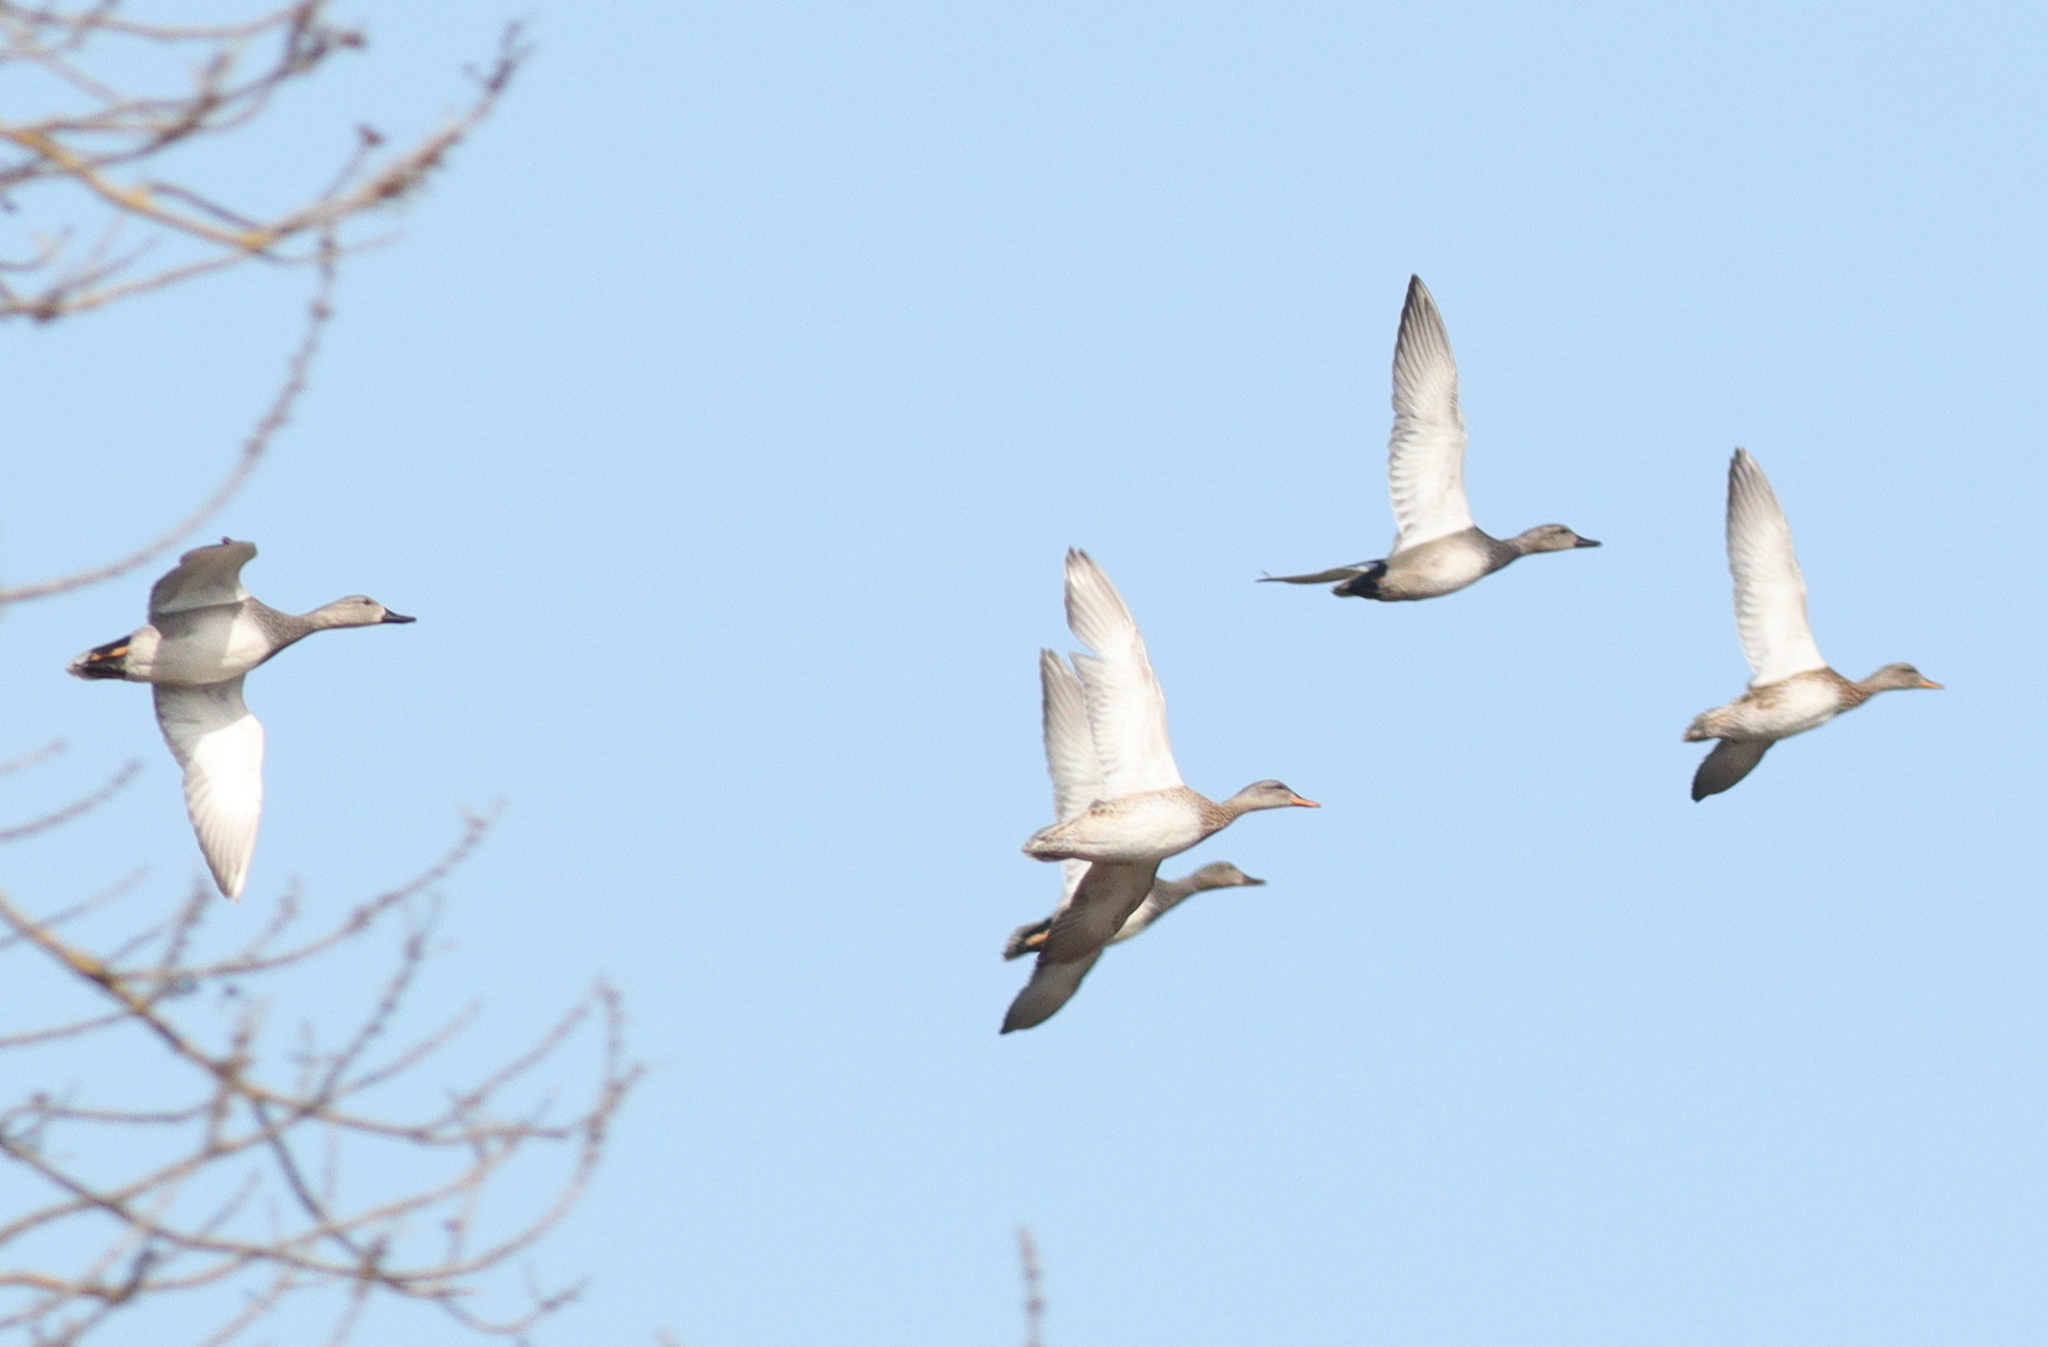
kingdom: Animalia
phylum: Chordata
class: Aves
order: Anseriformes
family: Anatidae
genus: Mareca
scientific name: Mareca strepera
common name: Gadwall
